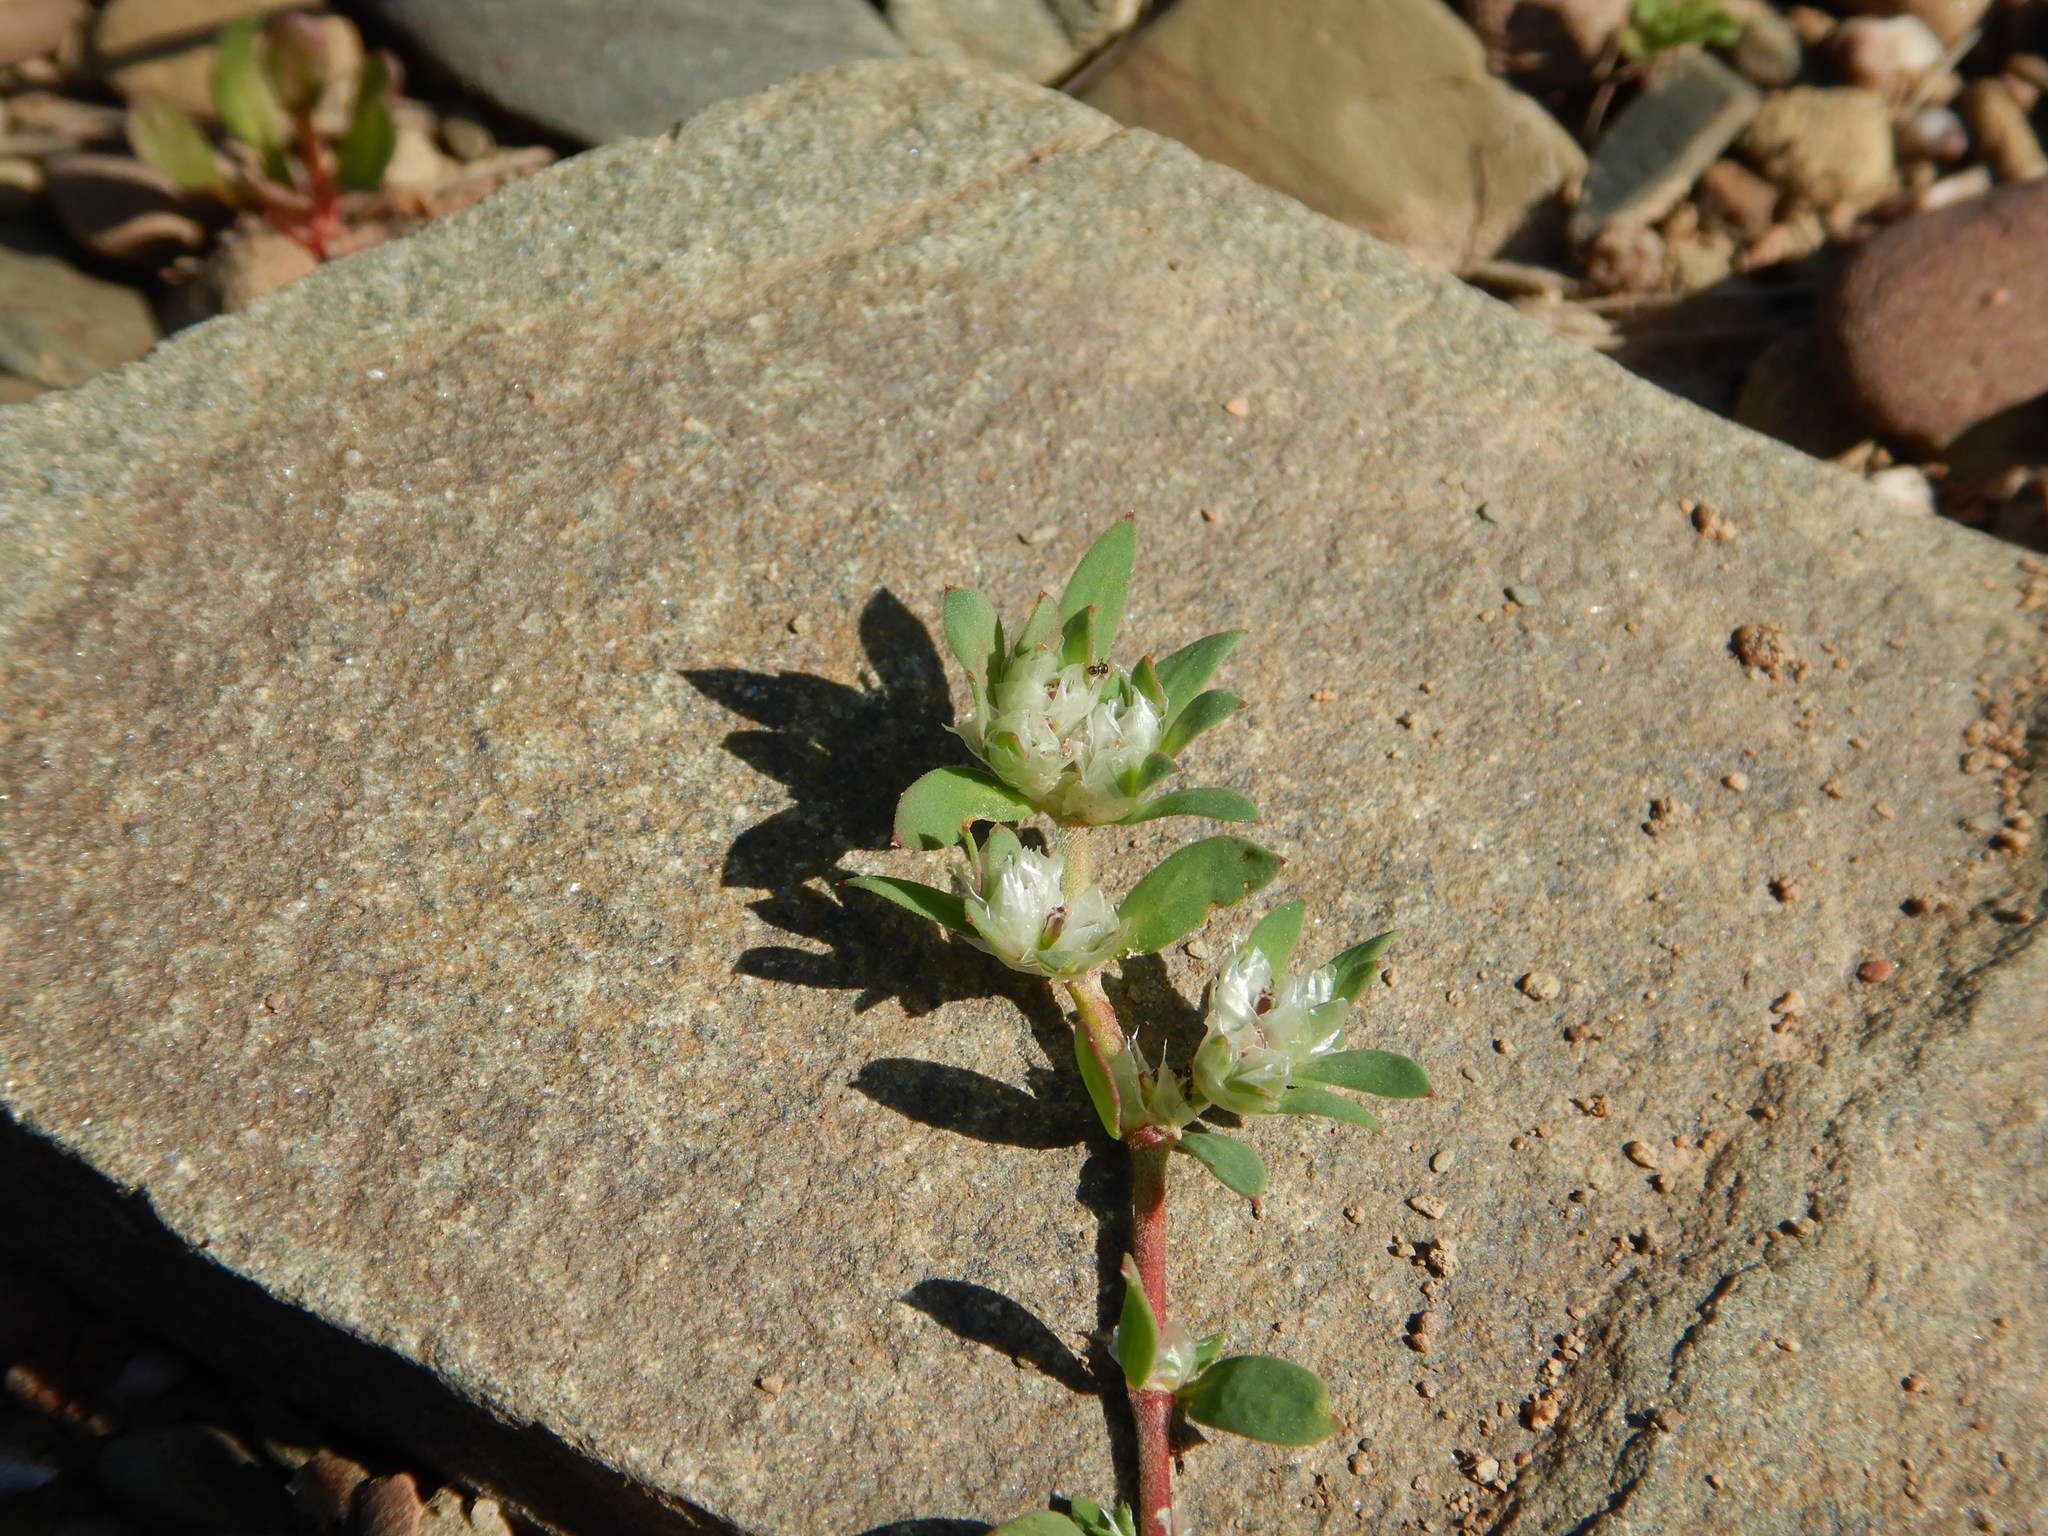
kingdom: Plantae
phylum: Tracheophyta
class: Magnoliopsida
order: Caryophyllales
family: Caryophyllaceae
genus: Paronychia
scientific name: Paronychia argentea
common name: Silver nailroot
